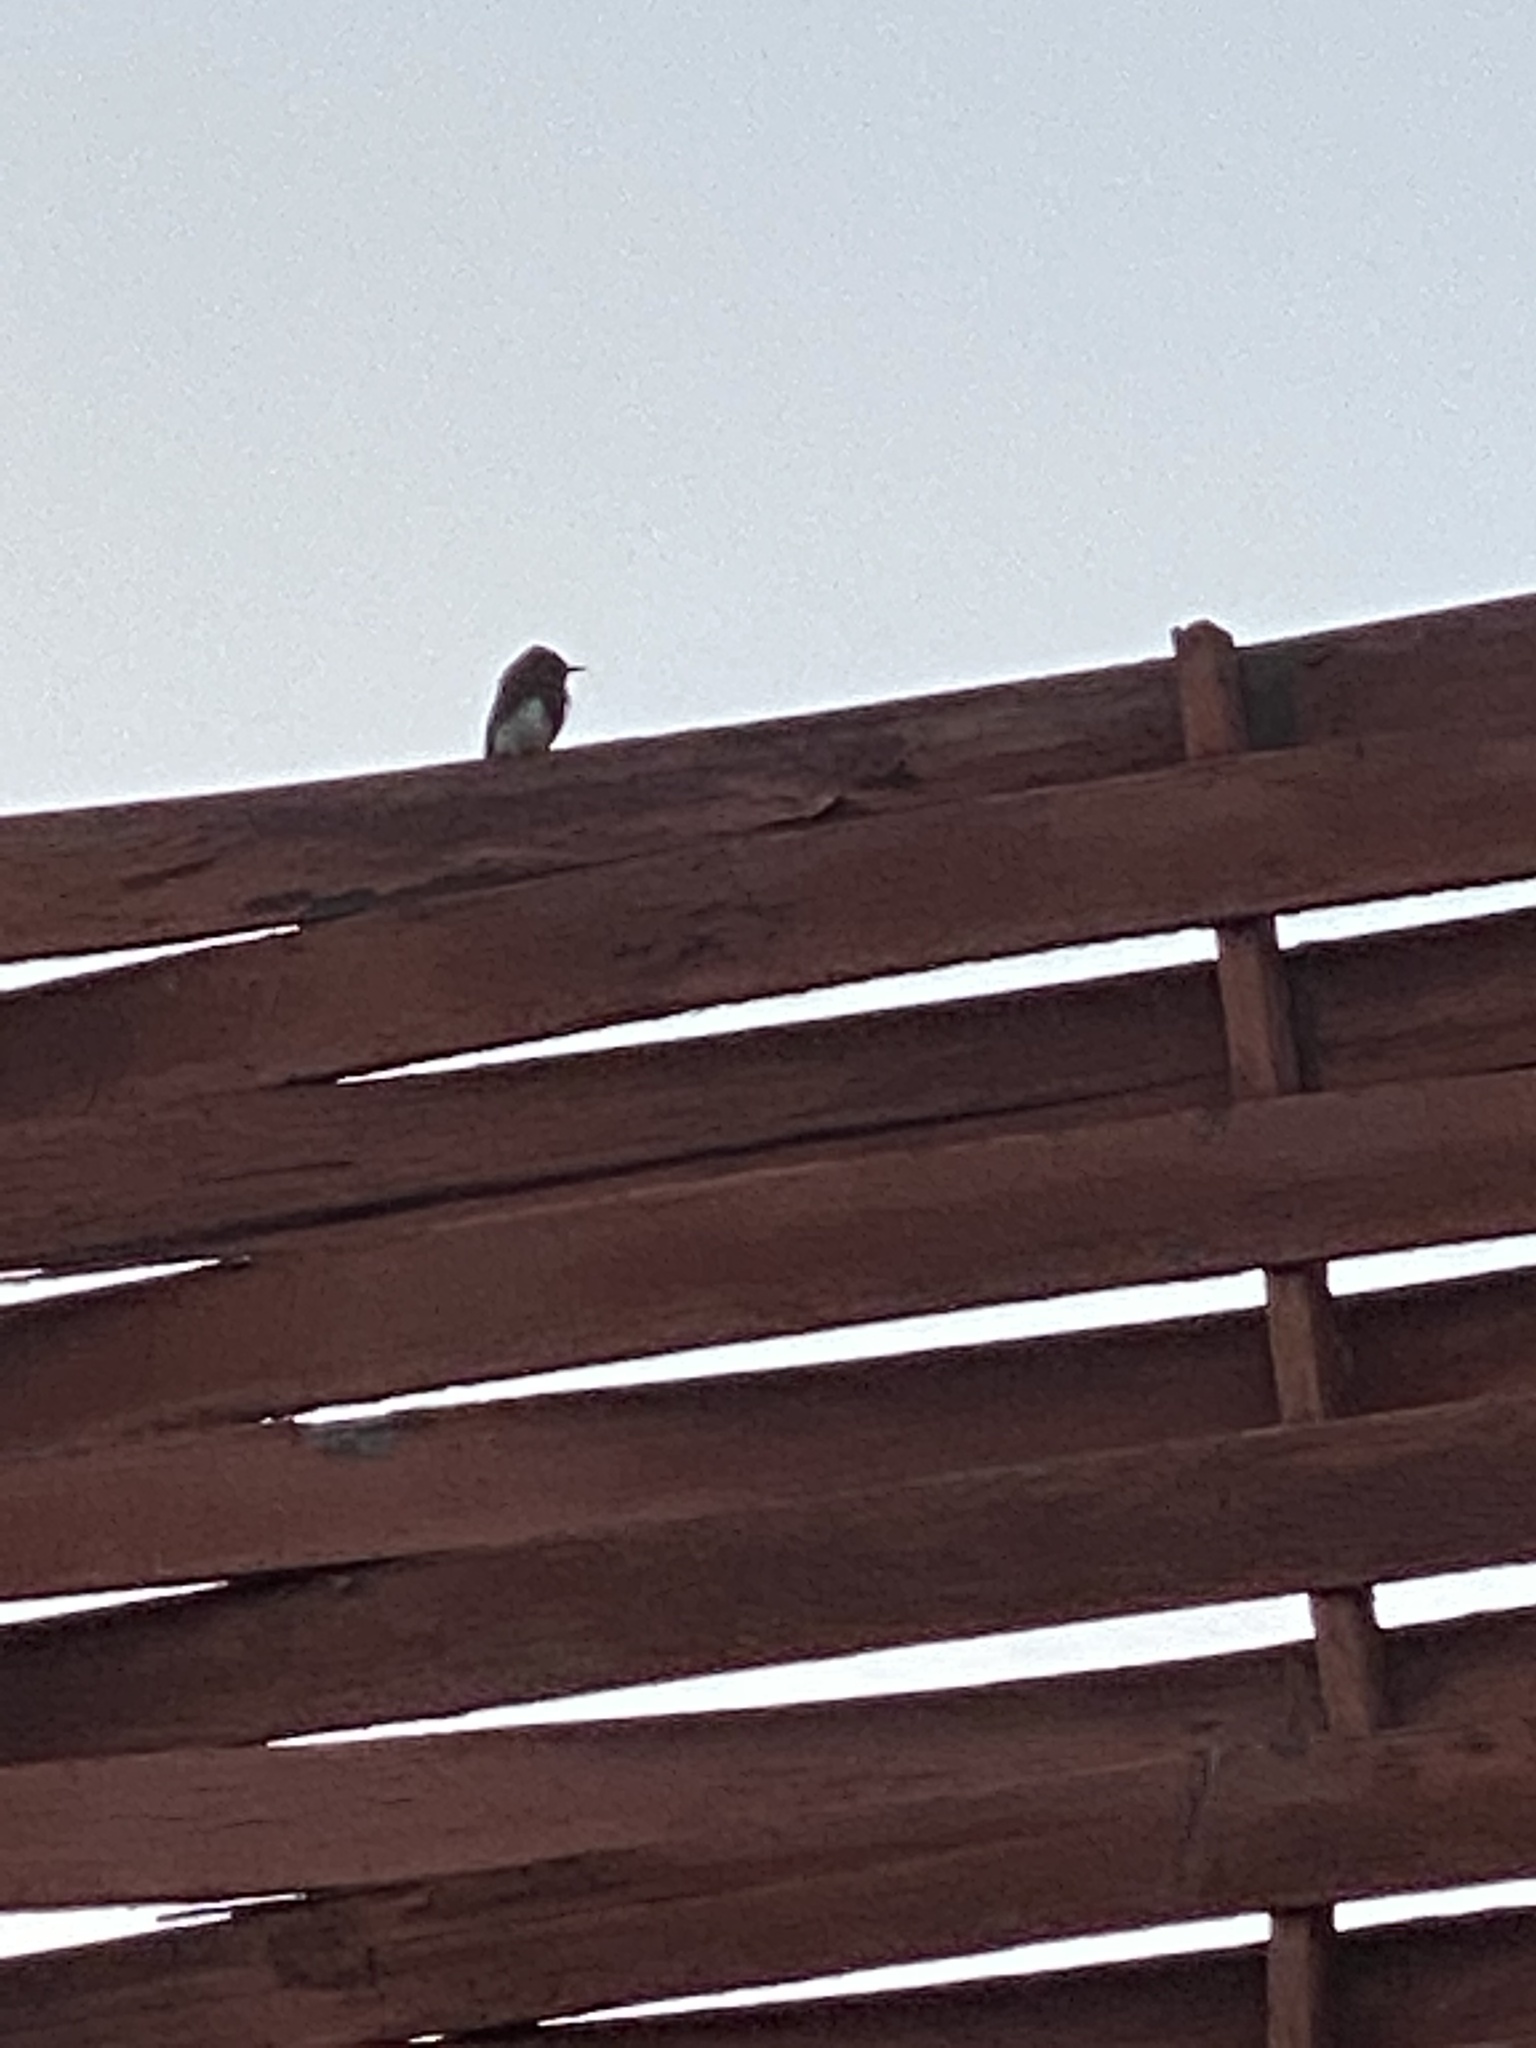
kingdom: Animalia
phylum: Chordata
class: Aves
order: Passeriformes
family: Tyrannidae
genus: Sayornis
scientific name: Sayornis nigricans
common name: Black phoebe
